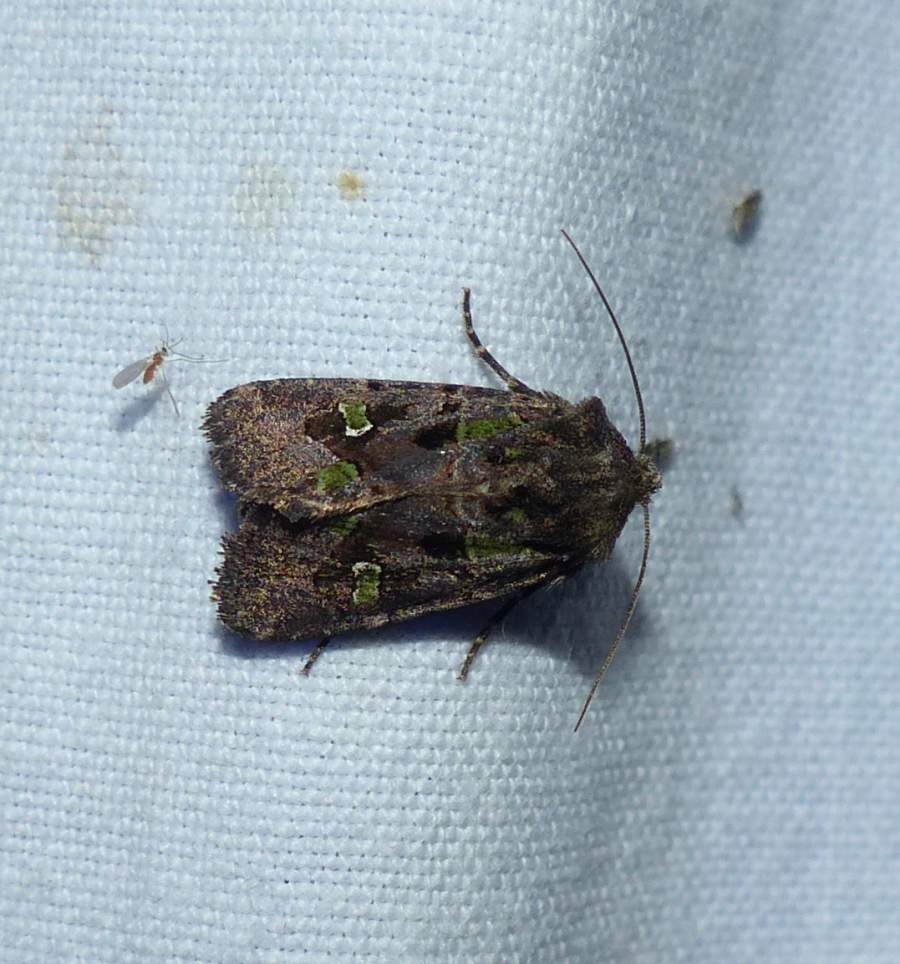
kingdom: Animalia
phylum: Arthropoda
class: Insecta
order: Lepidoptera
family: Noctuidae
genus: Lacinipolia
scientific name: Lacinipolia renigera
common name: Kidney-spotted minor
